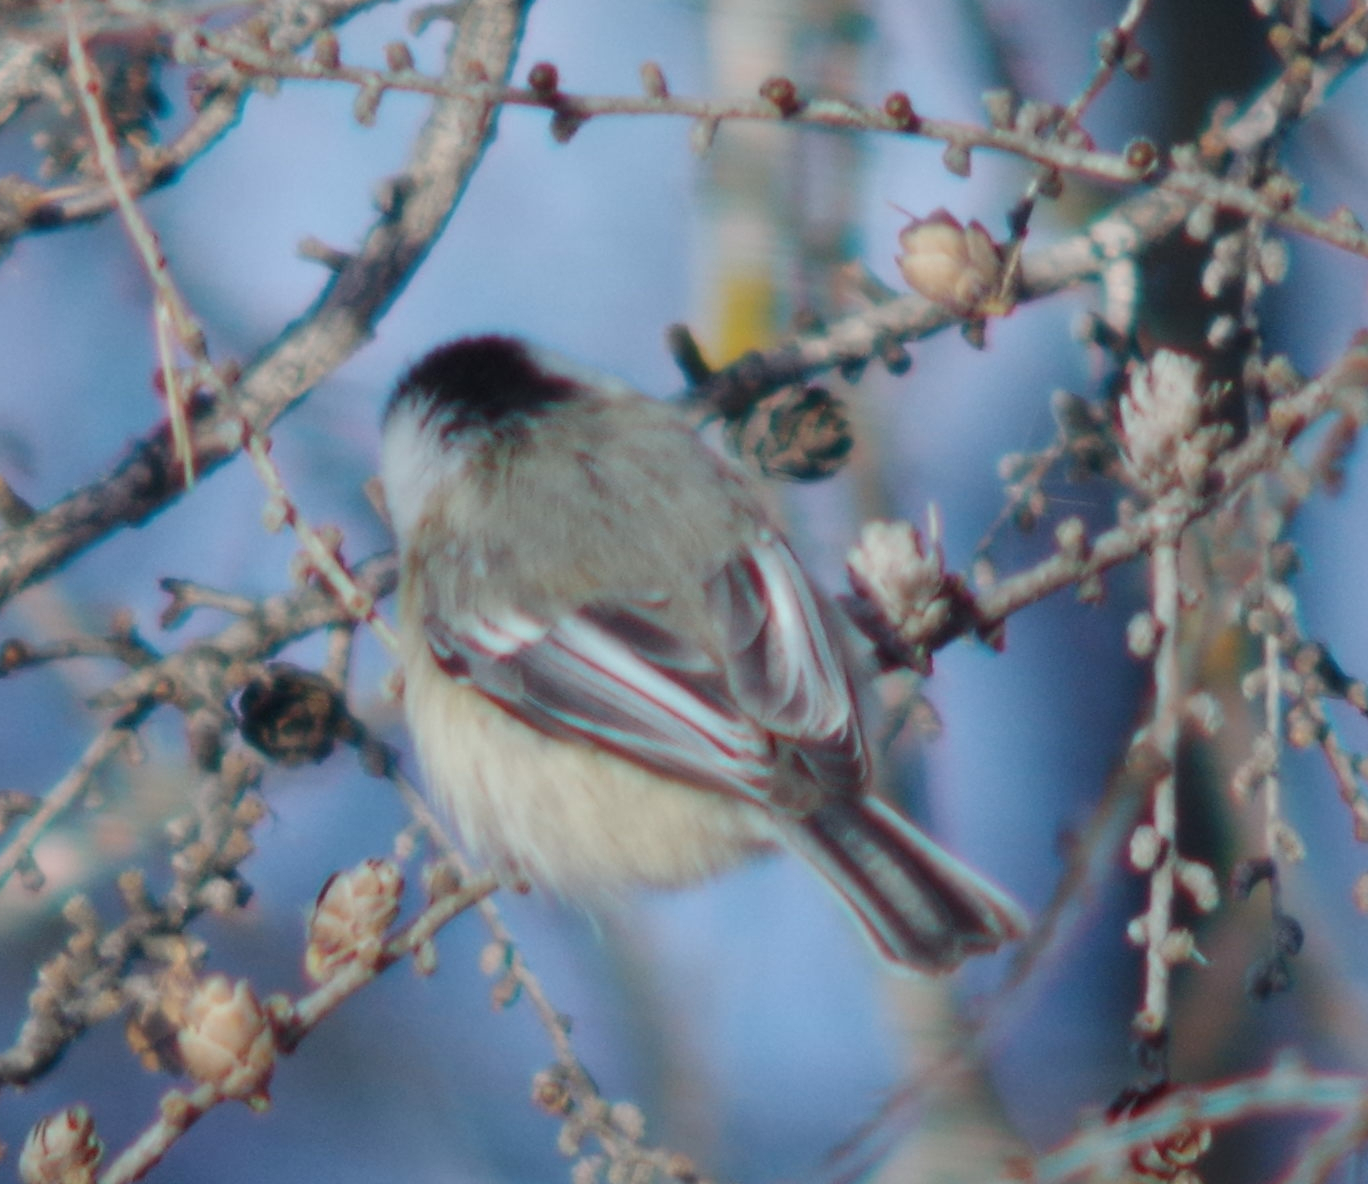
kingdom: Animalia
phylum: Chordata
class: Aves
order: Passeriformes
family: Paridae
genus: Poecile
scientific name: Poecile atricapillus
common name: Black-capped chickadee
